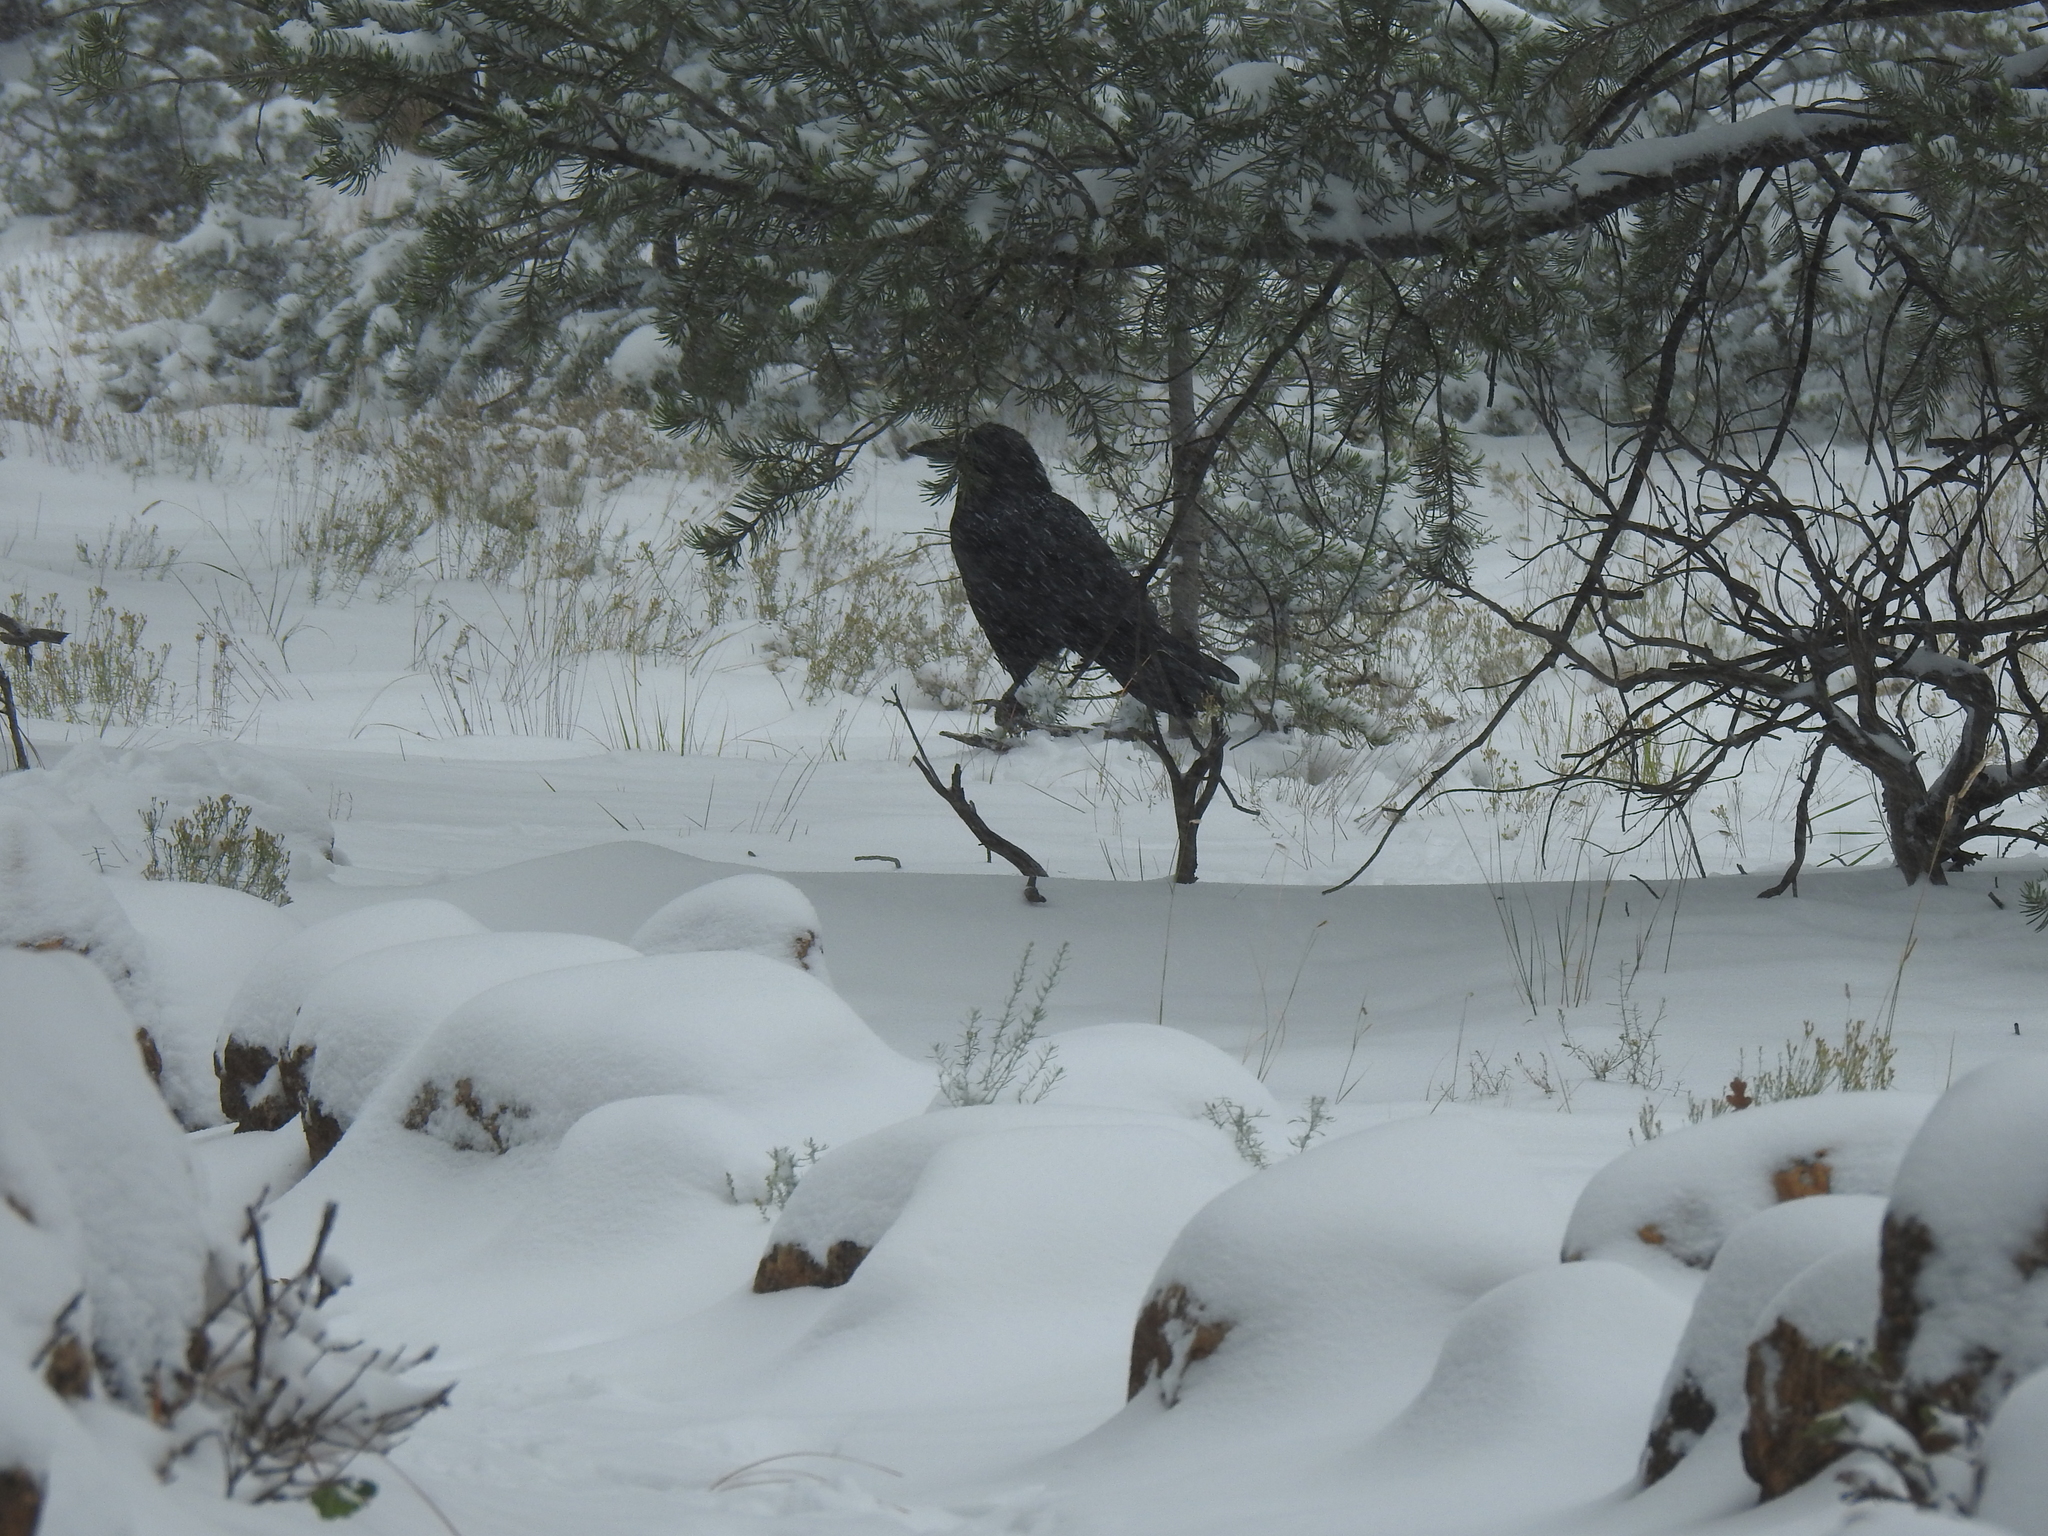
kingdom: Animalia
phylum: Chordata
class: Aves
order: Passeriformes
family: Corvidae
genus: Corvus
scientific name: Corvus corax
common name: Common raven
